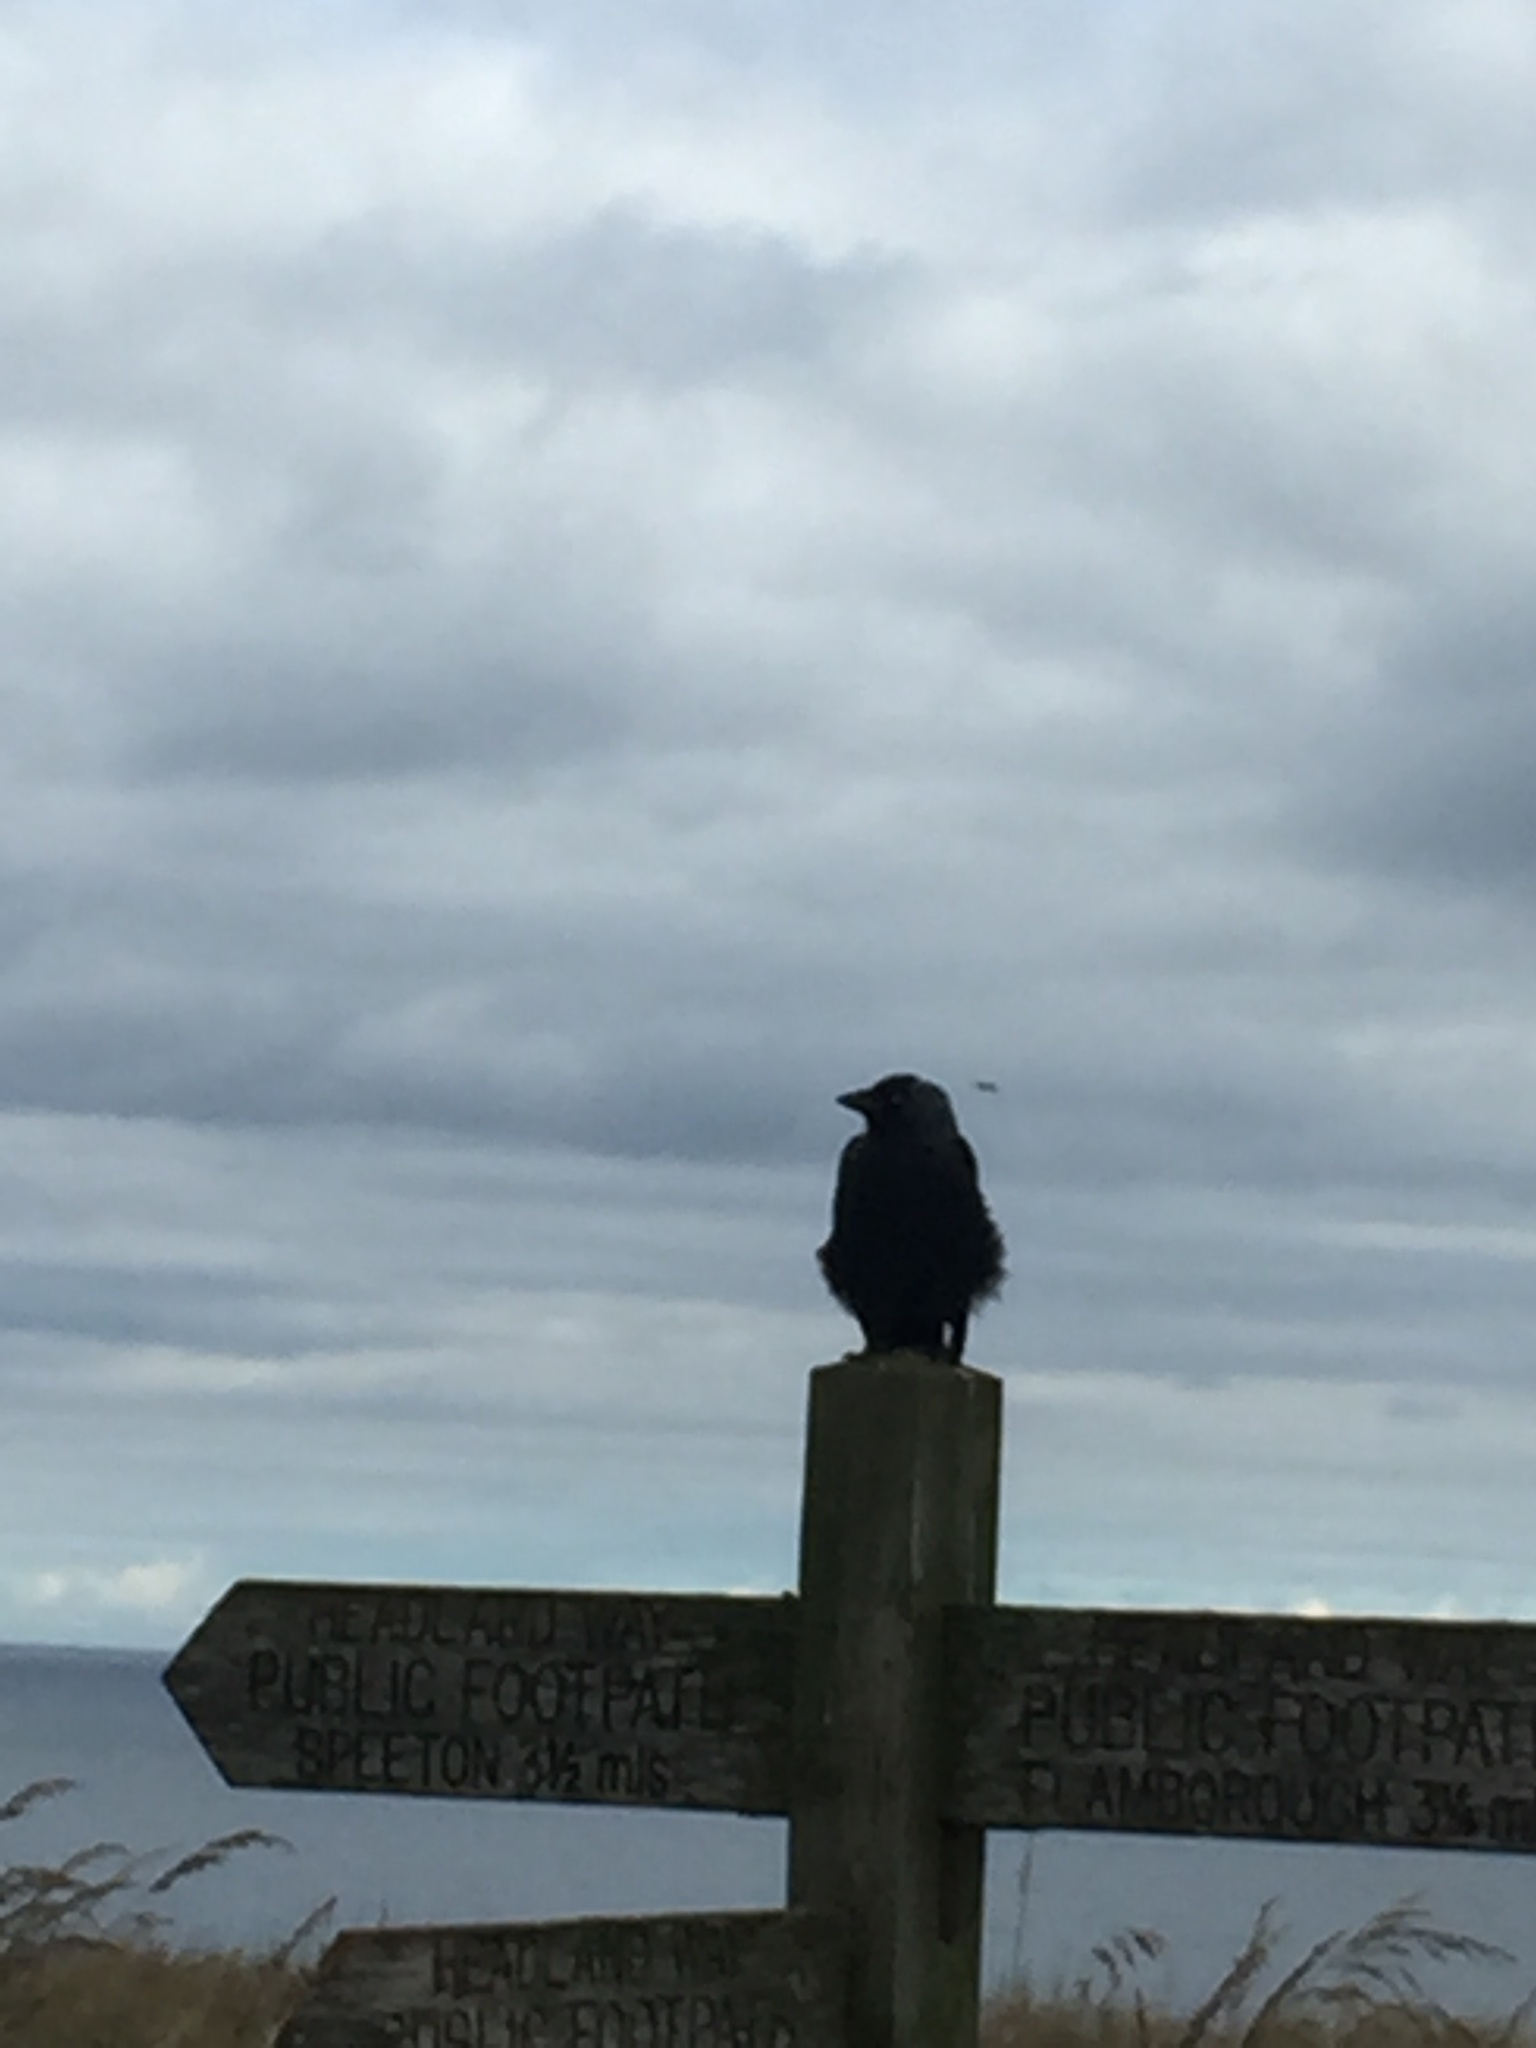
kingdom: Animalia
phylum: Chordata
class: Aves
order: Passeriformes
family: Corvidae
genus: Coloeus
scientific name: Coloeus monedula
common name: Western jackdaw
